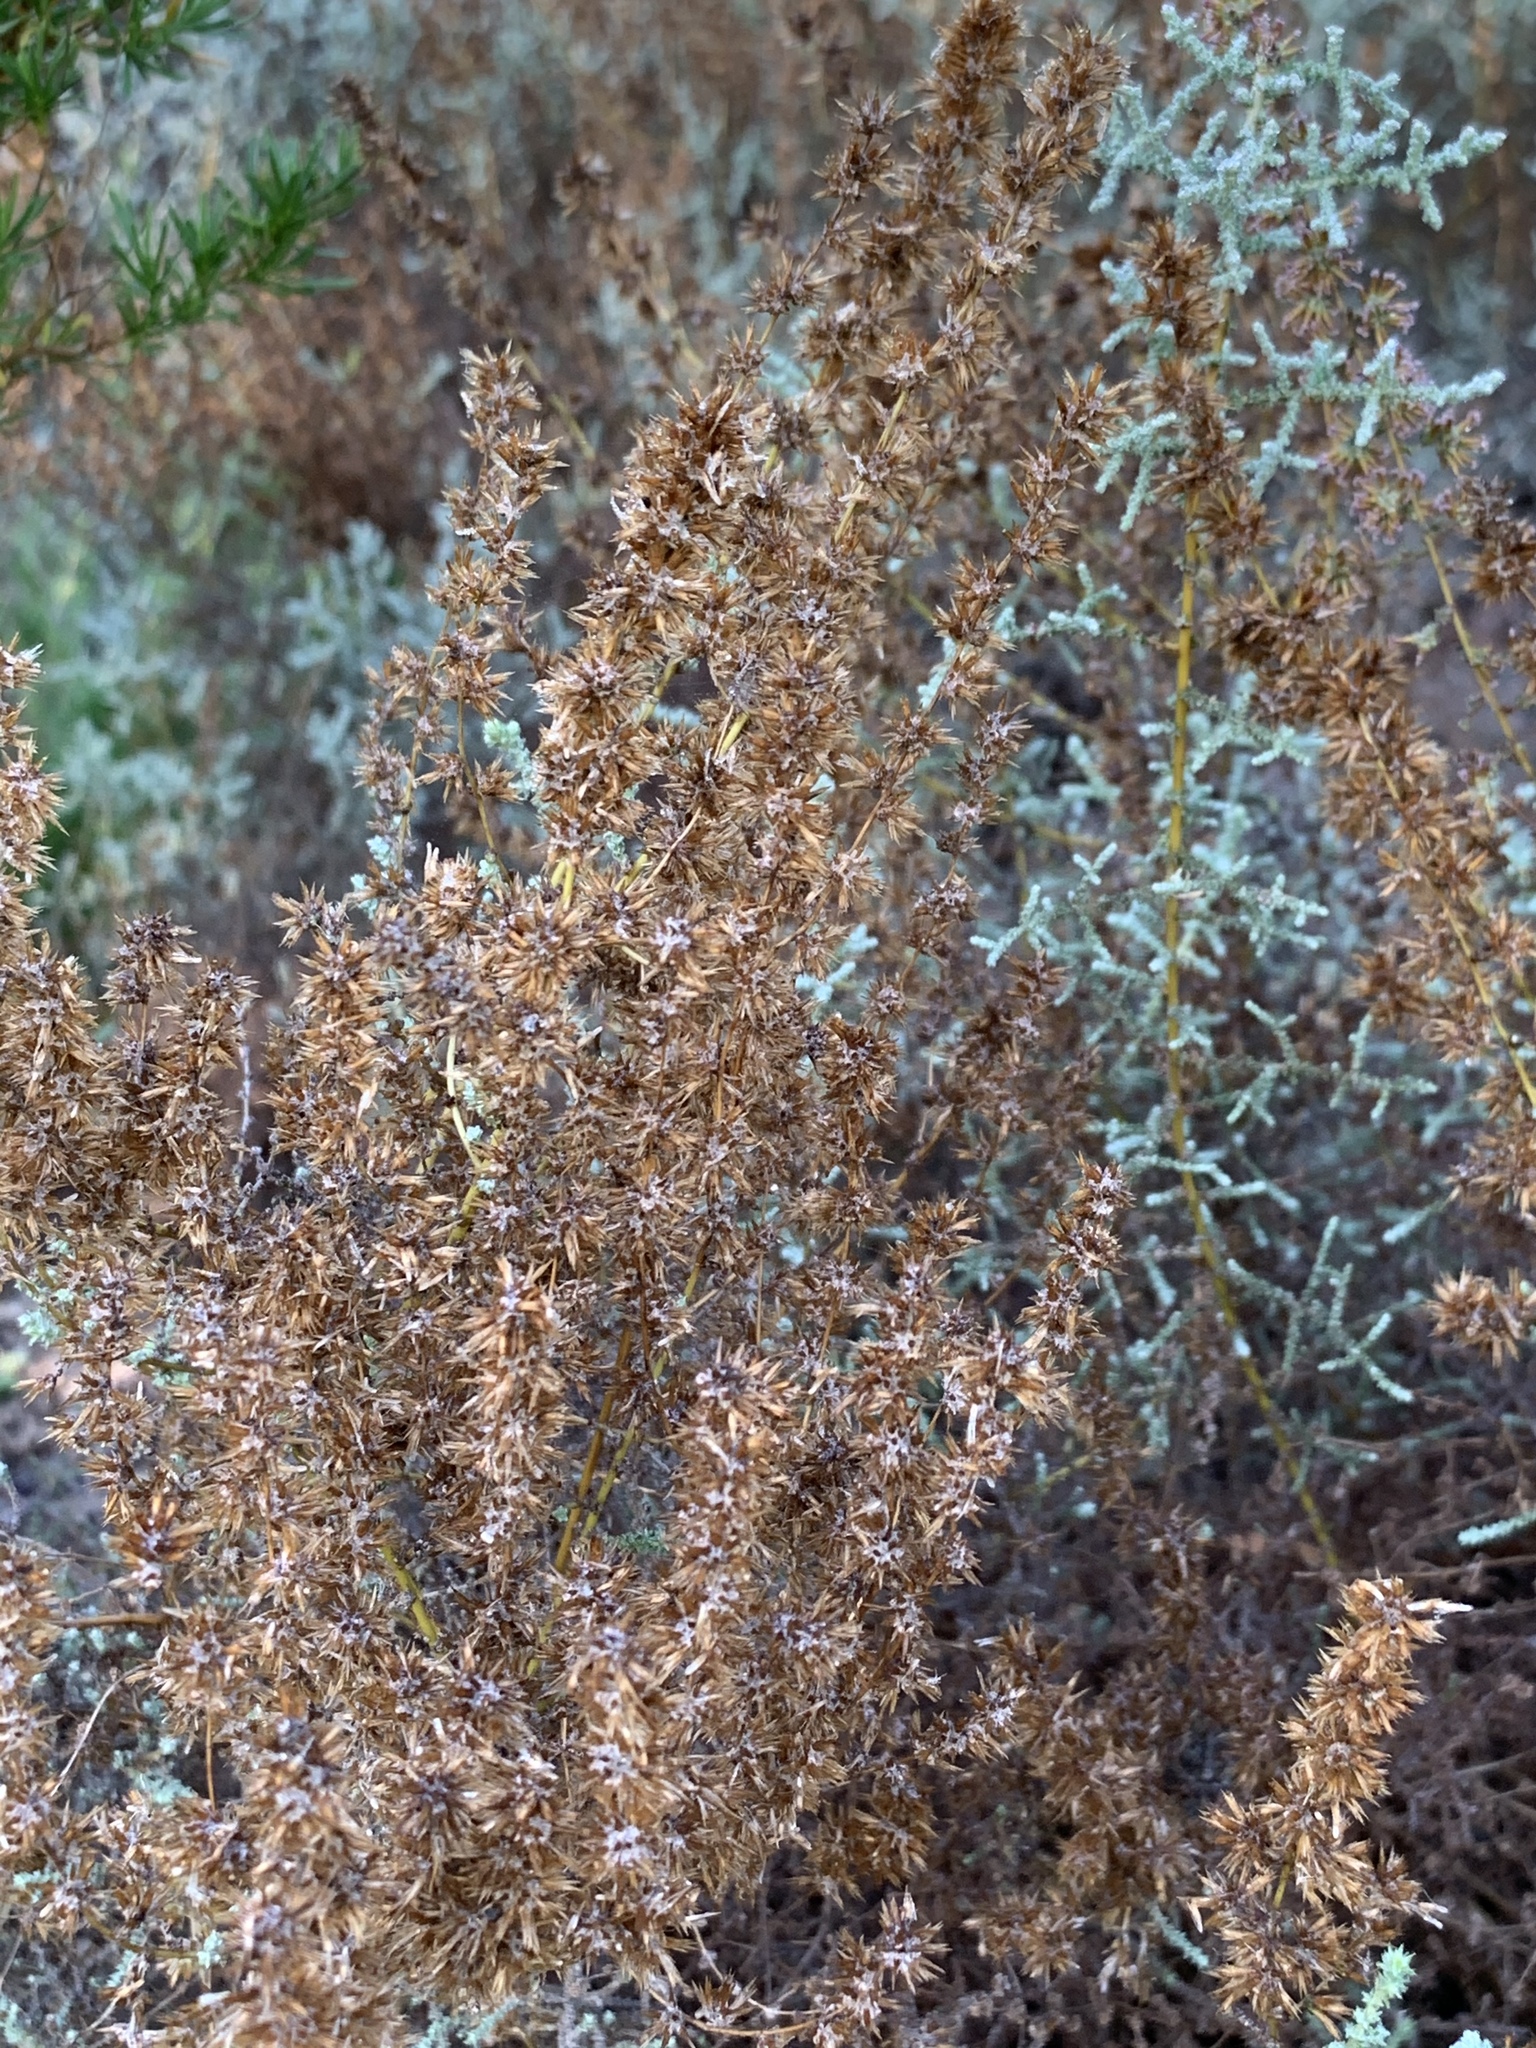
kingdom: Plantae
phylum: Tracheophyta
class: Magnoliopsida
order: Asterales
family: Asteraceae
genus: Seriphium
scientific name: Seriphium plumosum
